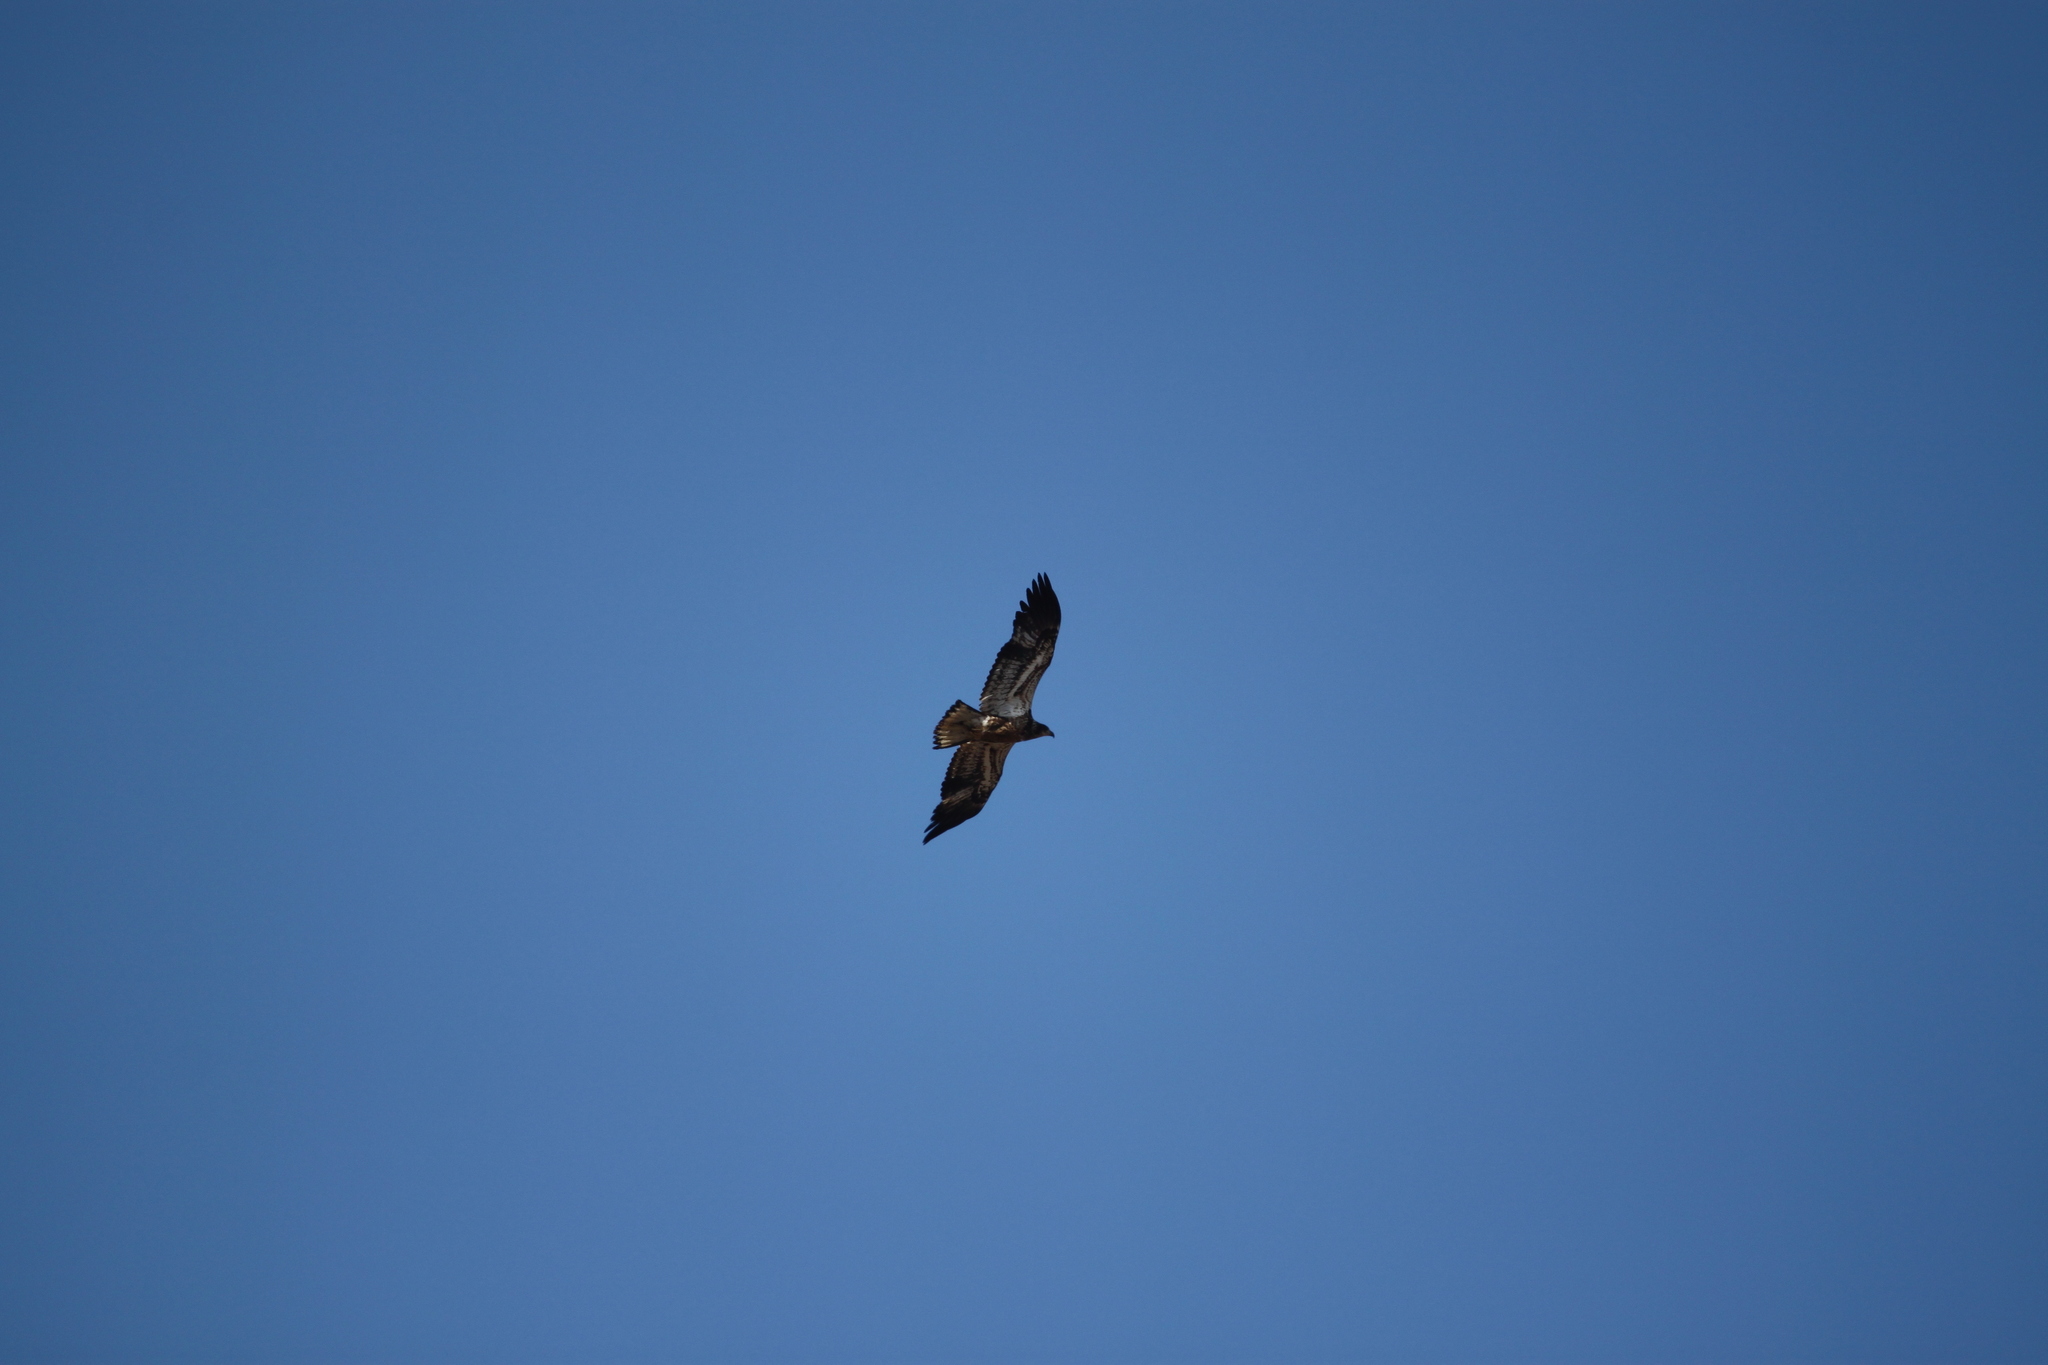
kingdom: Animalia
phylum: Chordata
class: Aves
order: Accipitriformes
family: Accipitridae
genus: Haliaeetus
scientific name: Haliaeetus leucocephalus
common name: Bald eagle
